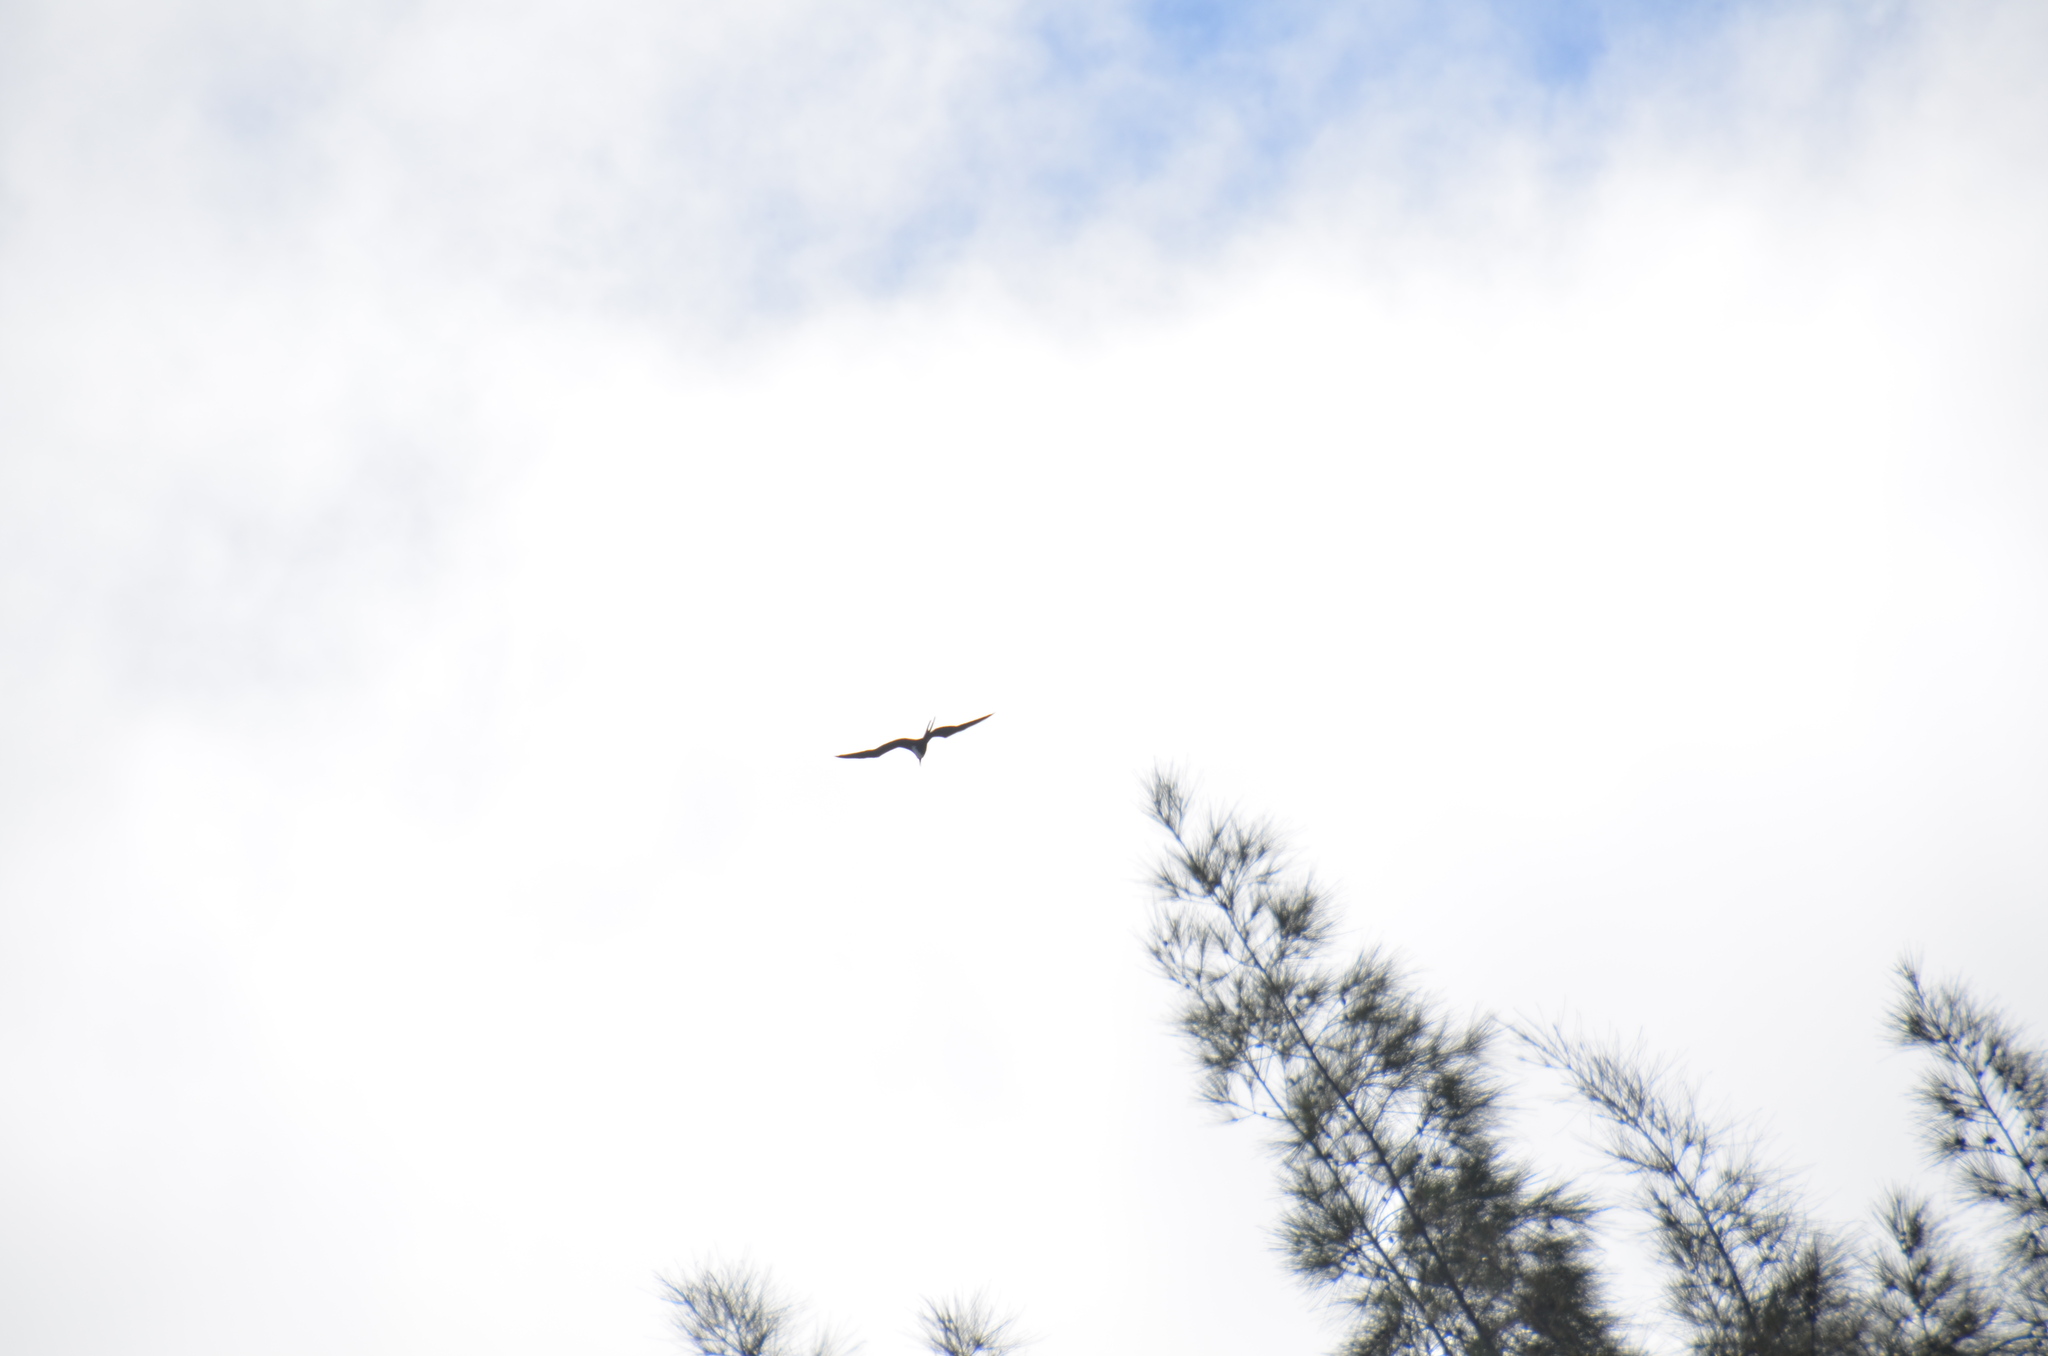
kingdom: Plantae
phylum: Tracheophyta
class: Magnoliopsida
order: Fagales
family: Casuarinaceae
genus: Casuarina
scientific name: Casuarina equisetifolia
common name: Beach sheoak
